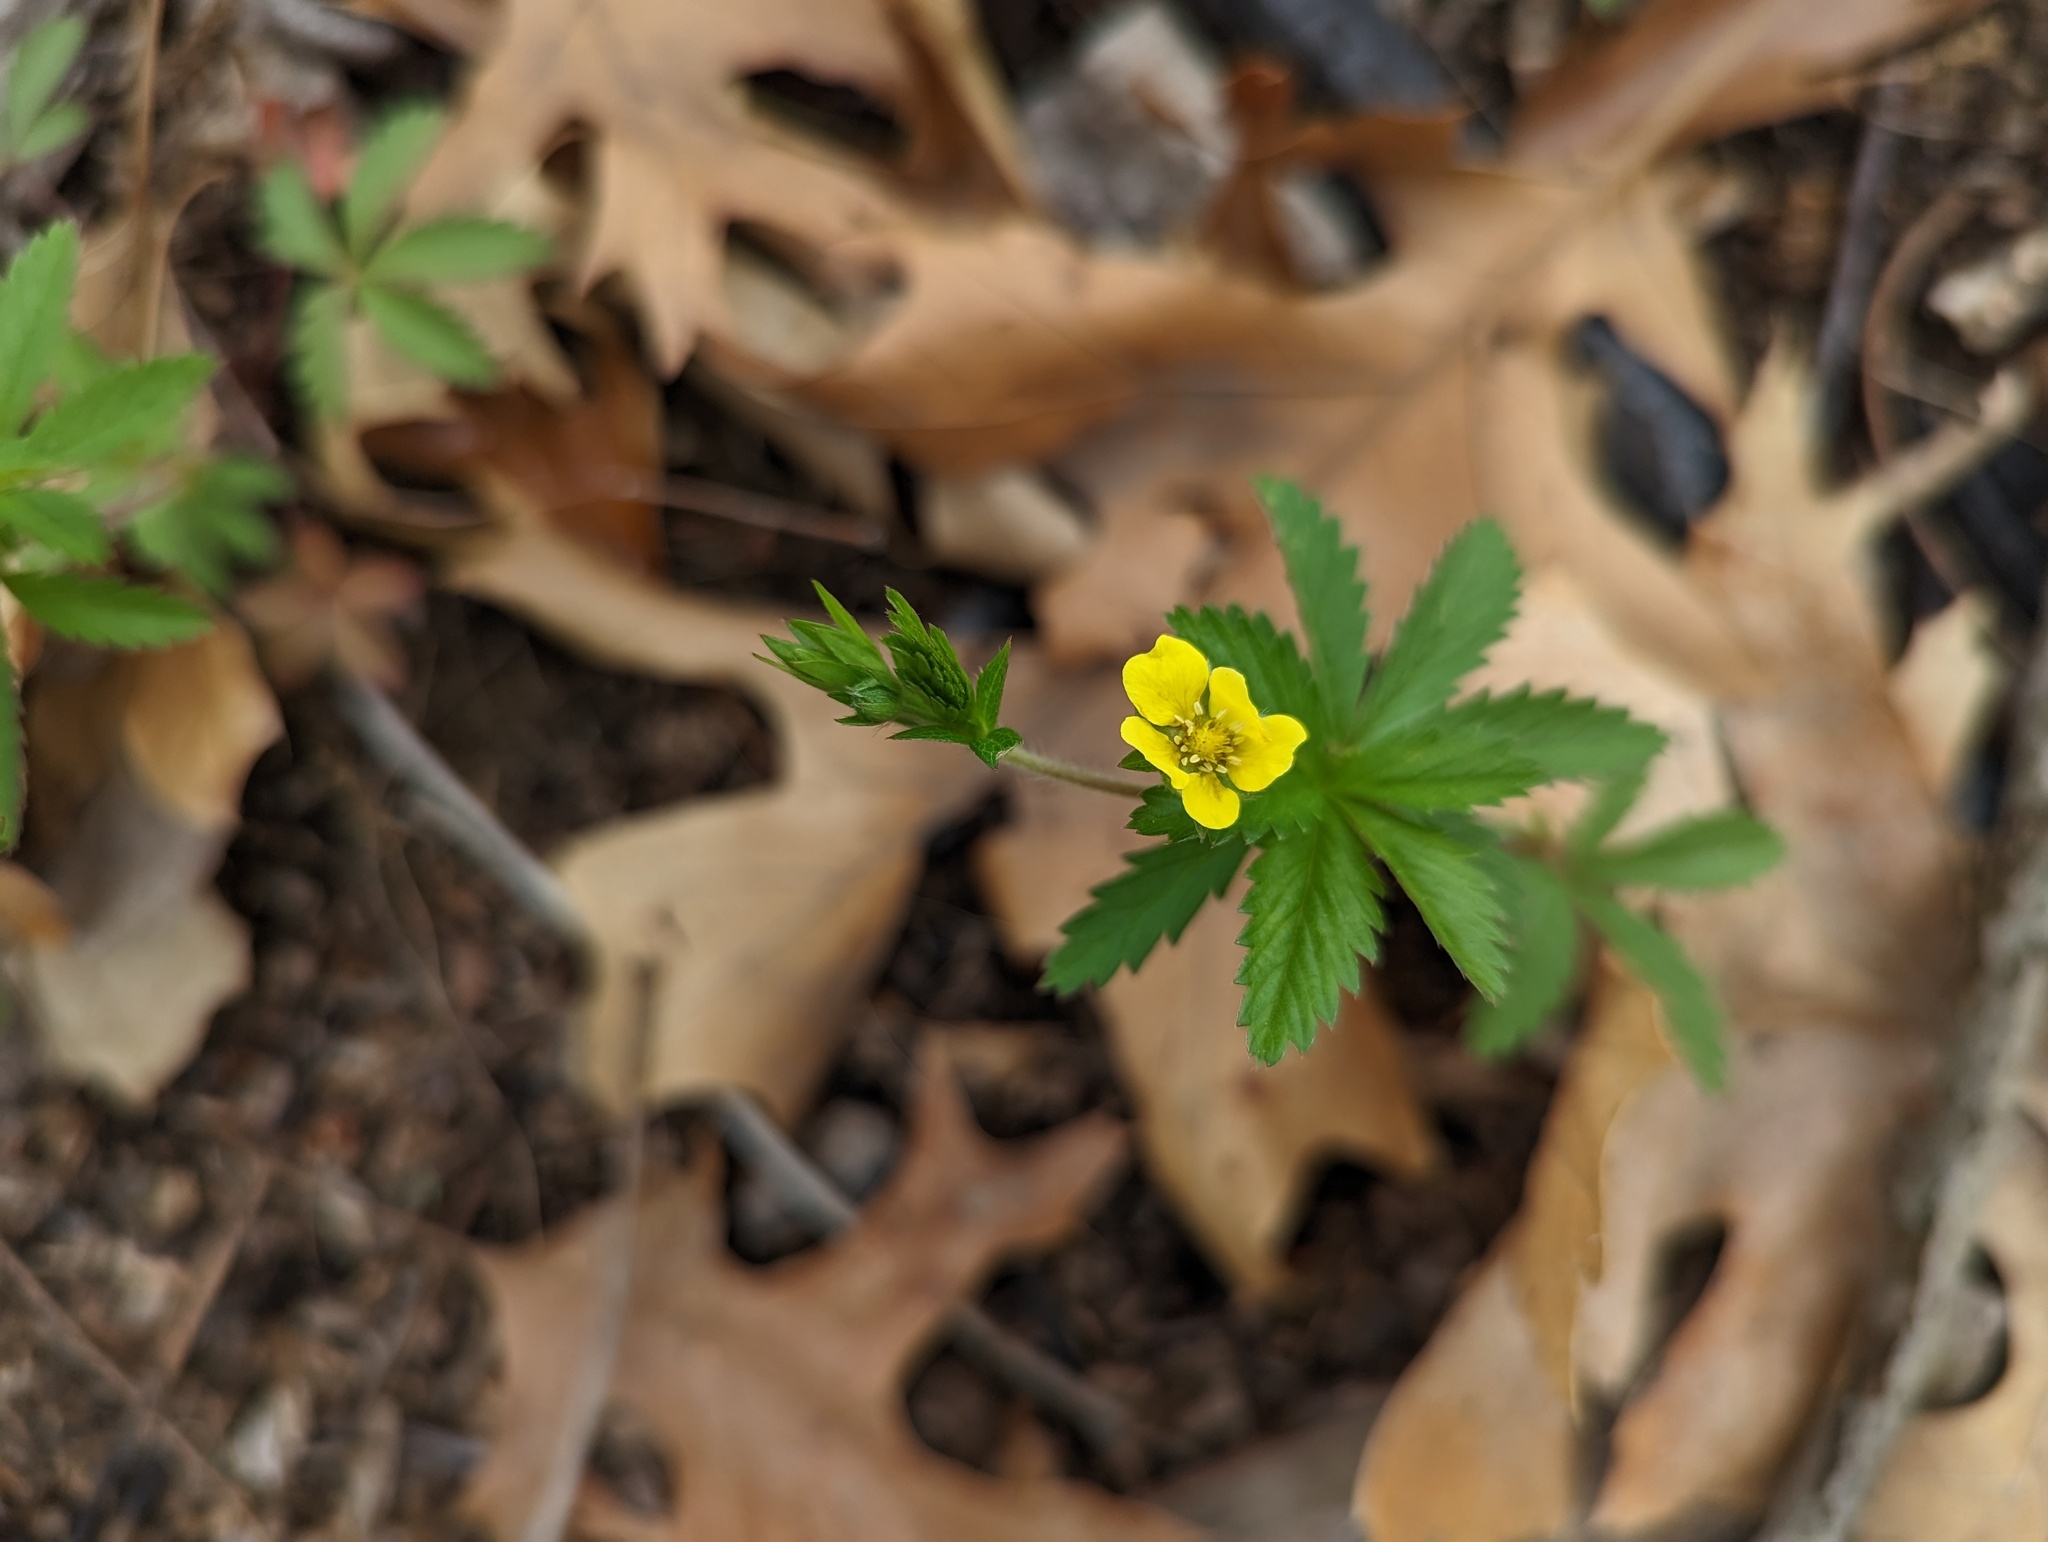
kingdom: Plantae
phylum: Tracheophyta
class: Magnoliopsida
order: Rosales
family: Rosaceae
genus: Potentilla
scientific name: Potentilla simplex
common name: Old field cinquefoil
